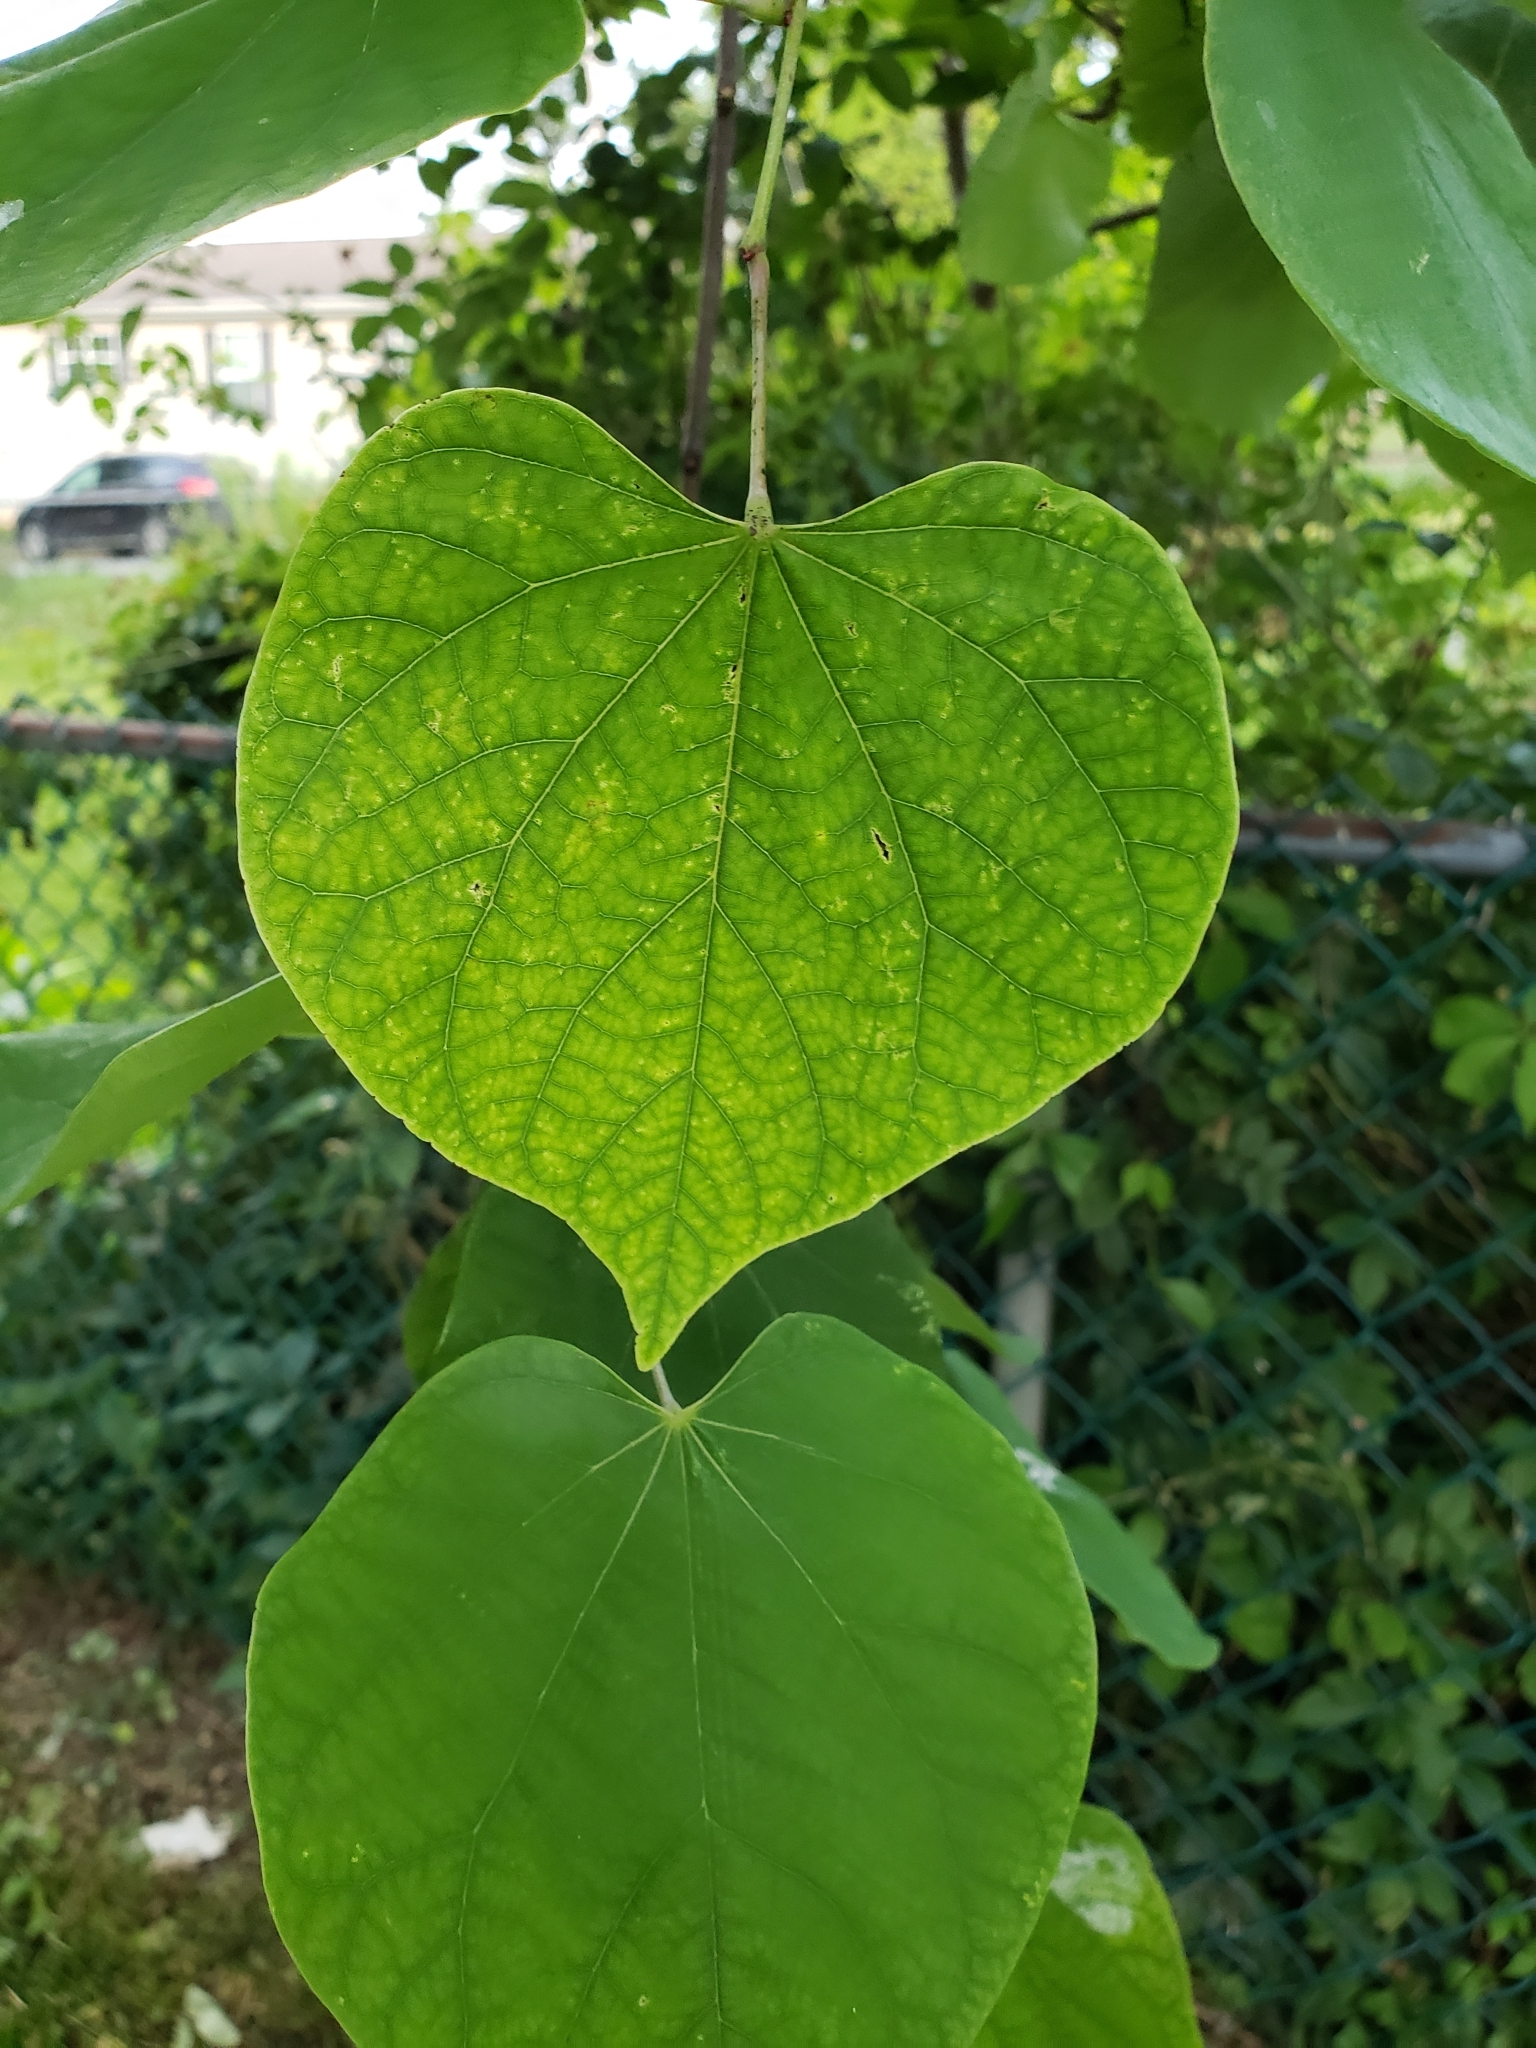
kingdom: Plantae
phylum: Tracheophyta
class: Magnoliopsida
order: Fabales
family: Fabaceae
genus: Cercis
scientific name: Cercis canadensis
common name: Eastern redbud
